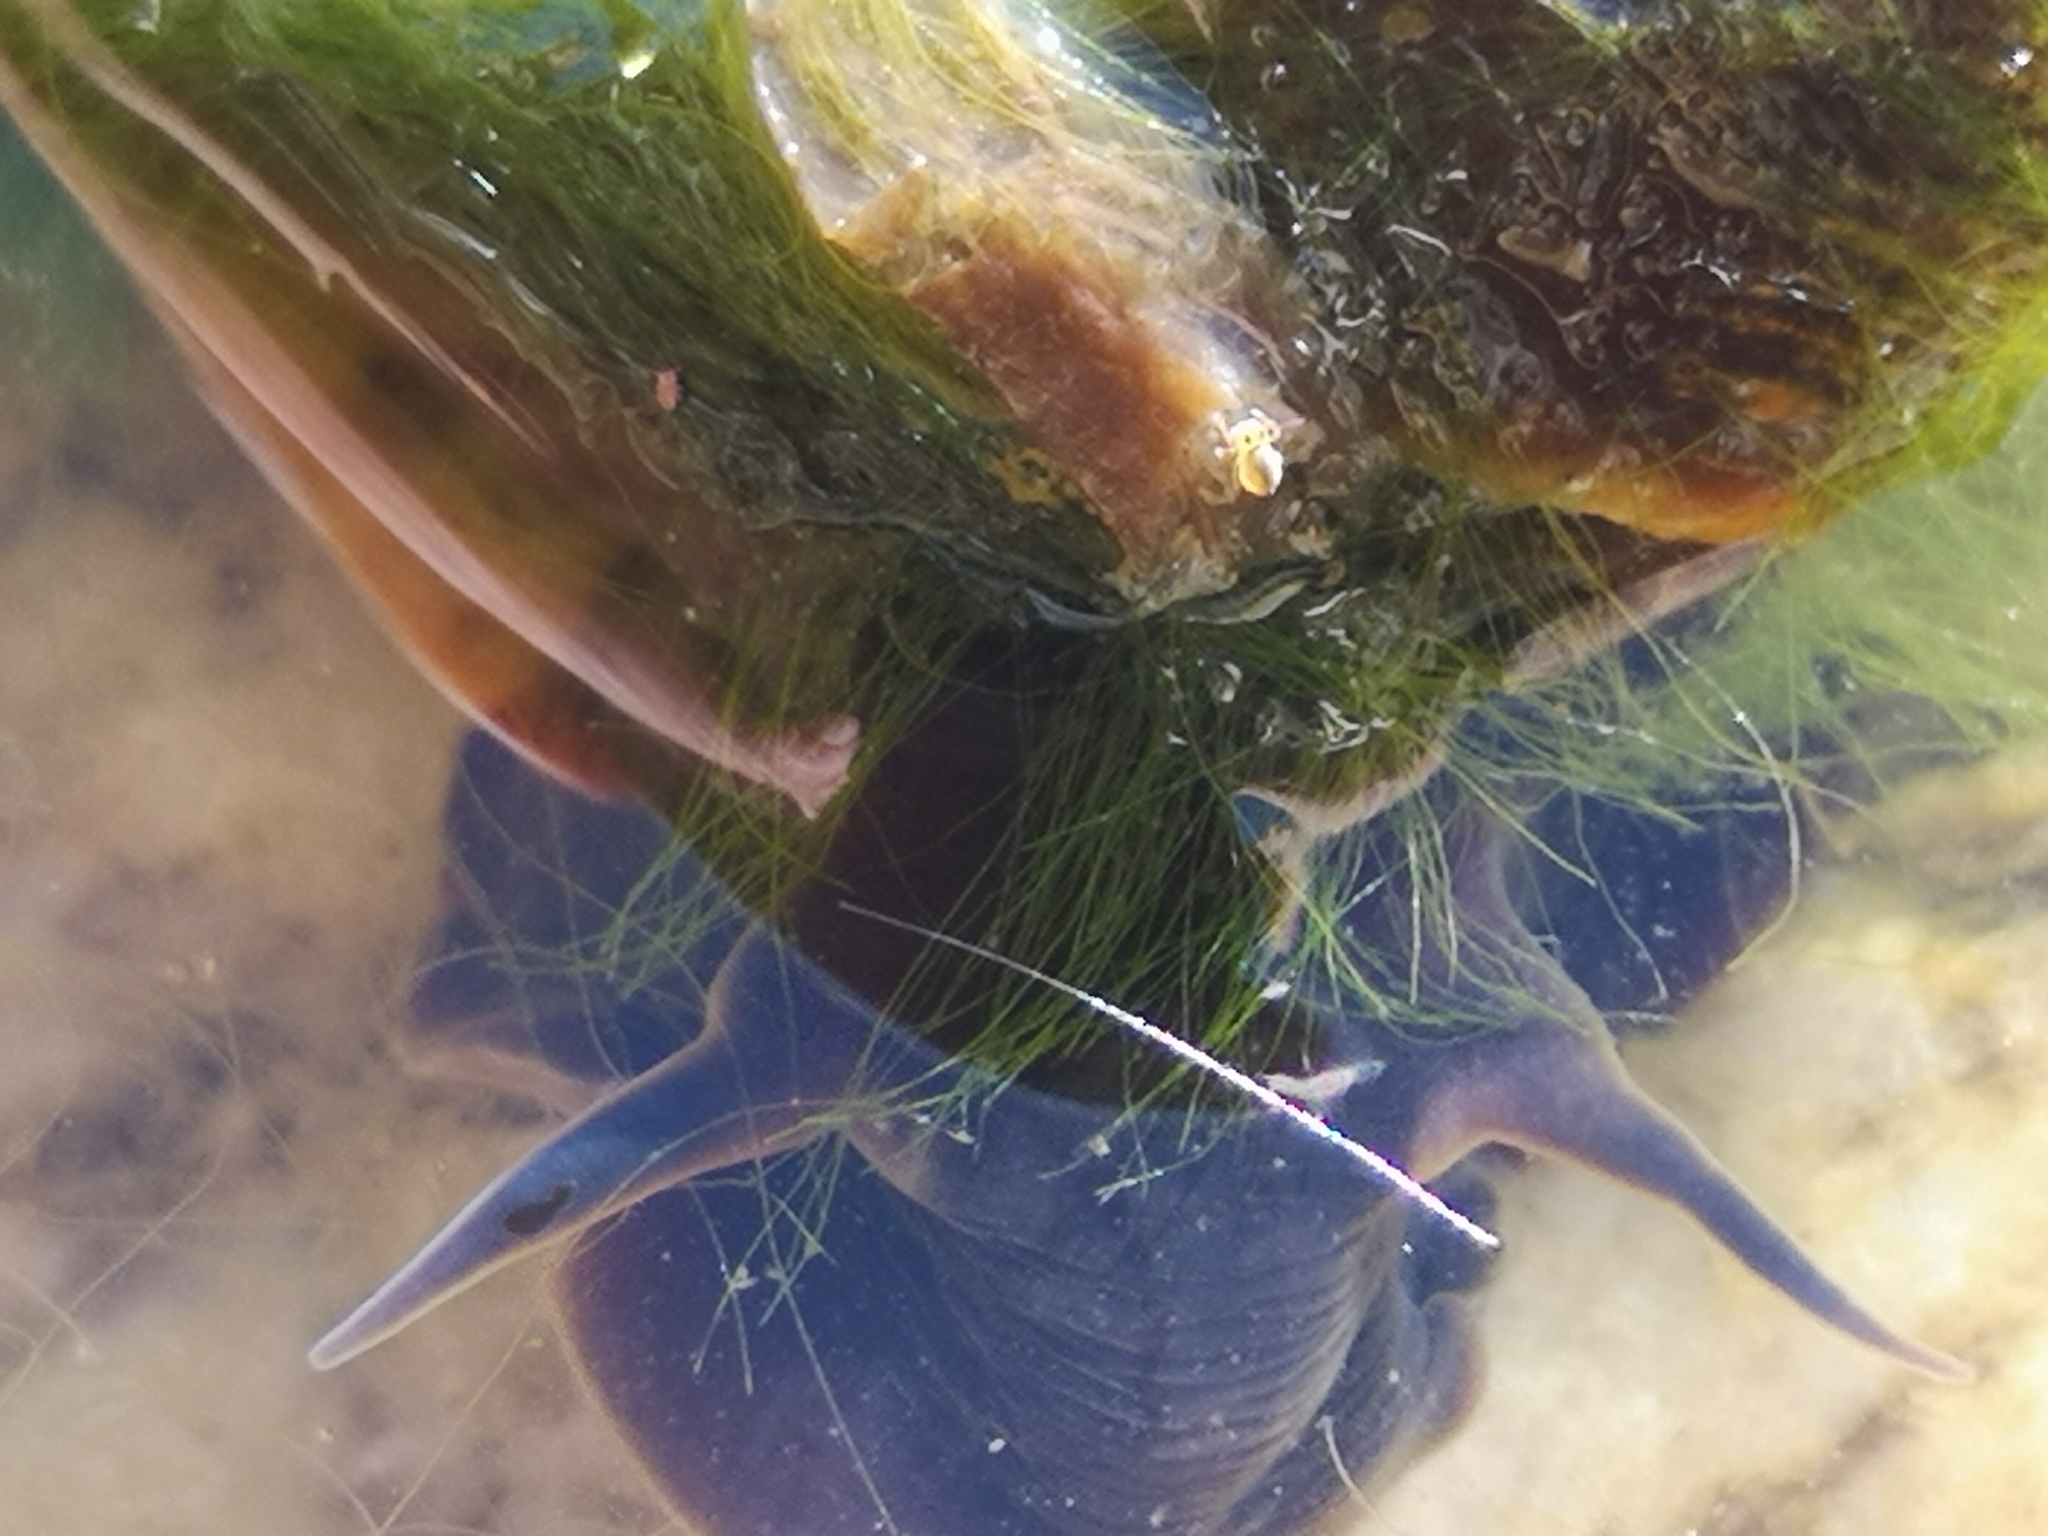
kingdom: Animalia
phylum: Mollusca
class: Gastropoda
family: Planorbidae
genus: Planorbarius
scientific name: Planorbarius corneus
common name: Great ramshorn
